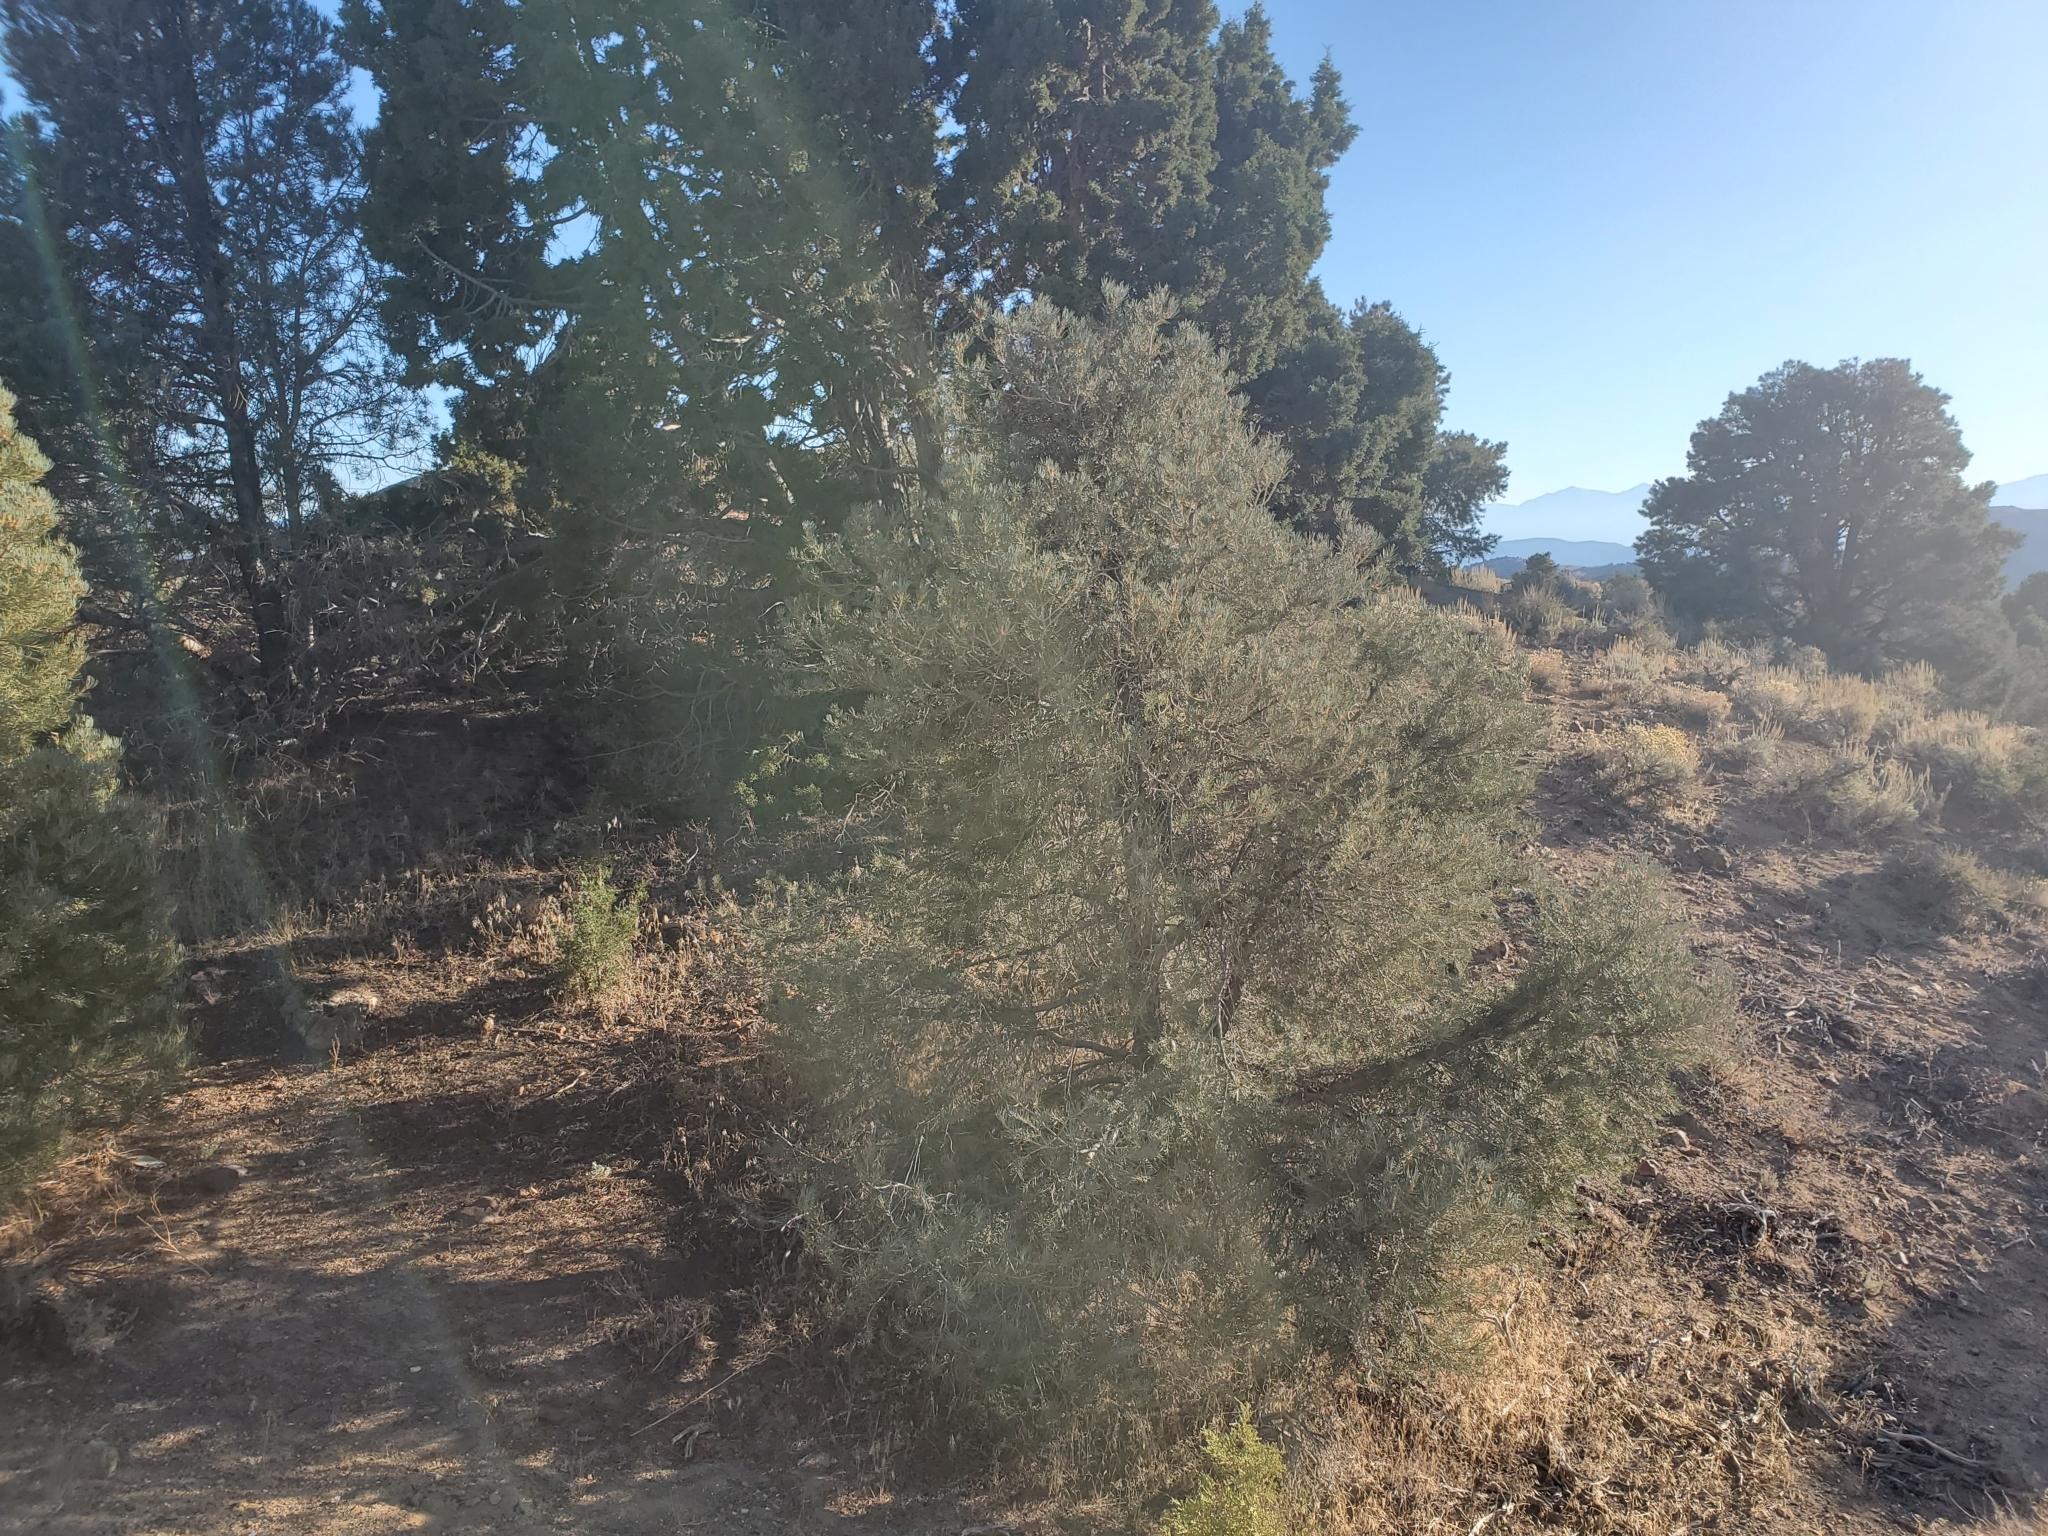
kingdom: Plantae
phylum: Tracheophyta
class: Pinopsida
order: Pinales
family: Pinaceae
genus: Pinus
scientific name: Pinus monophylla
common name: One-leaved nut pine
